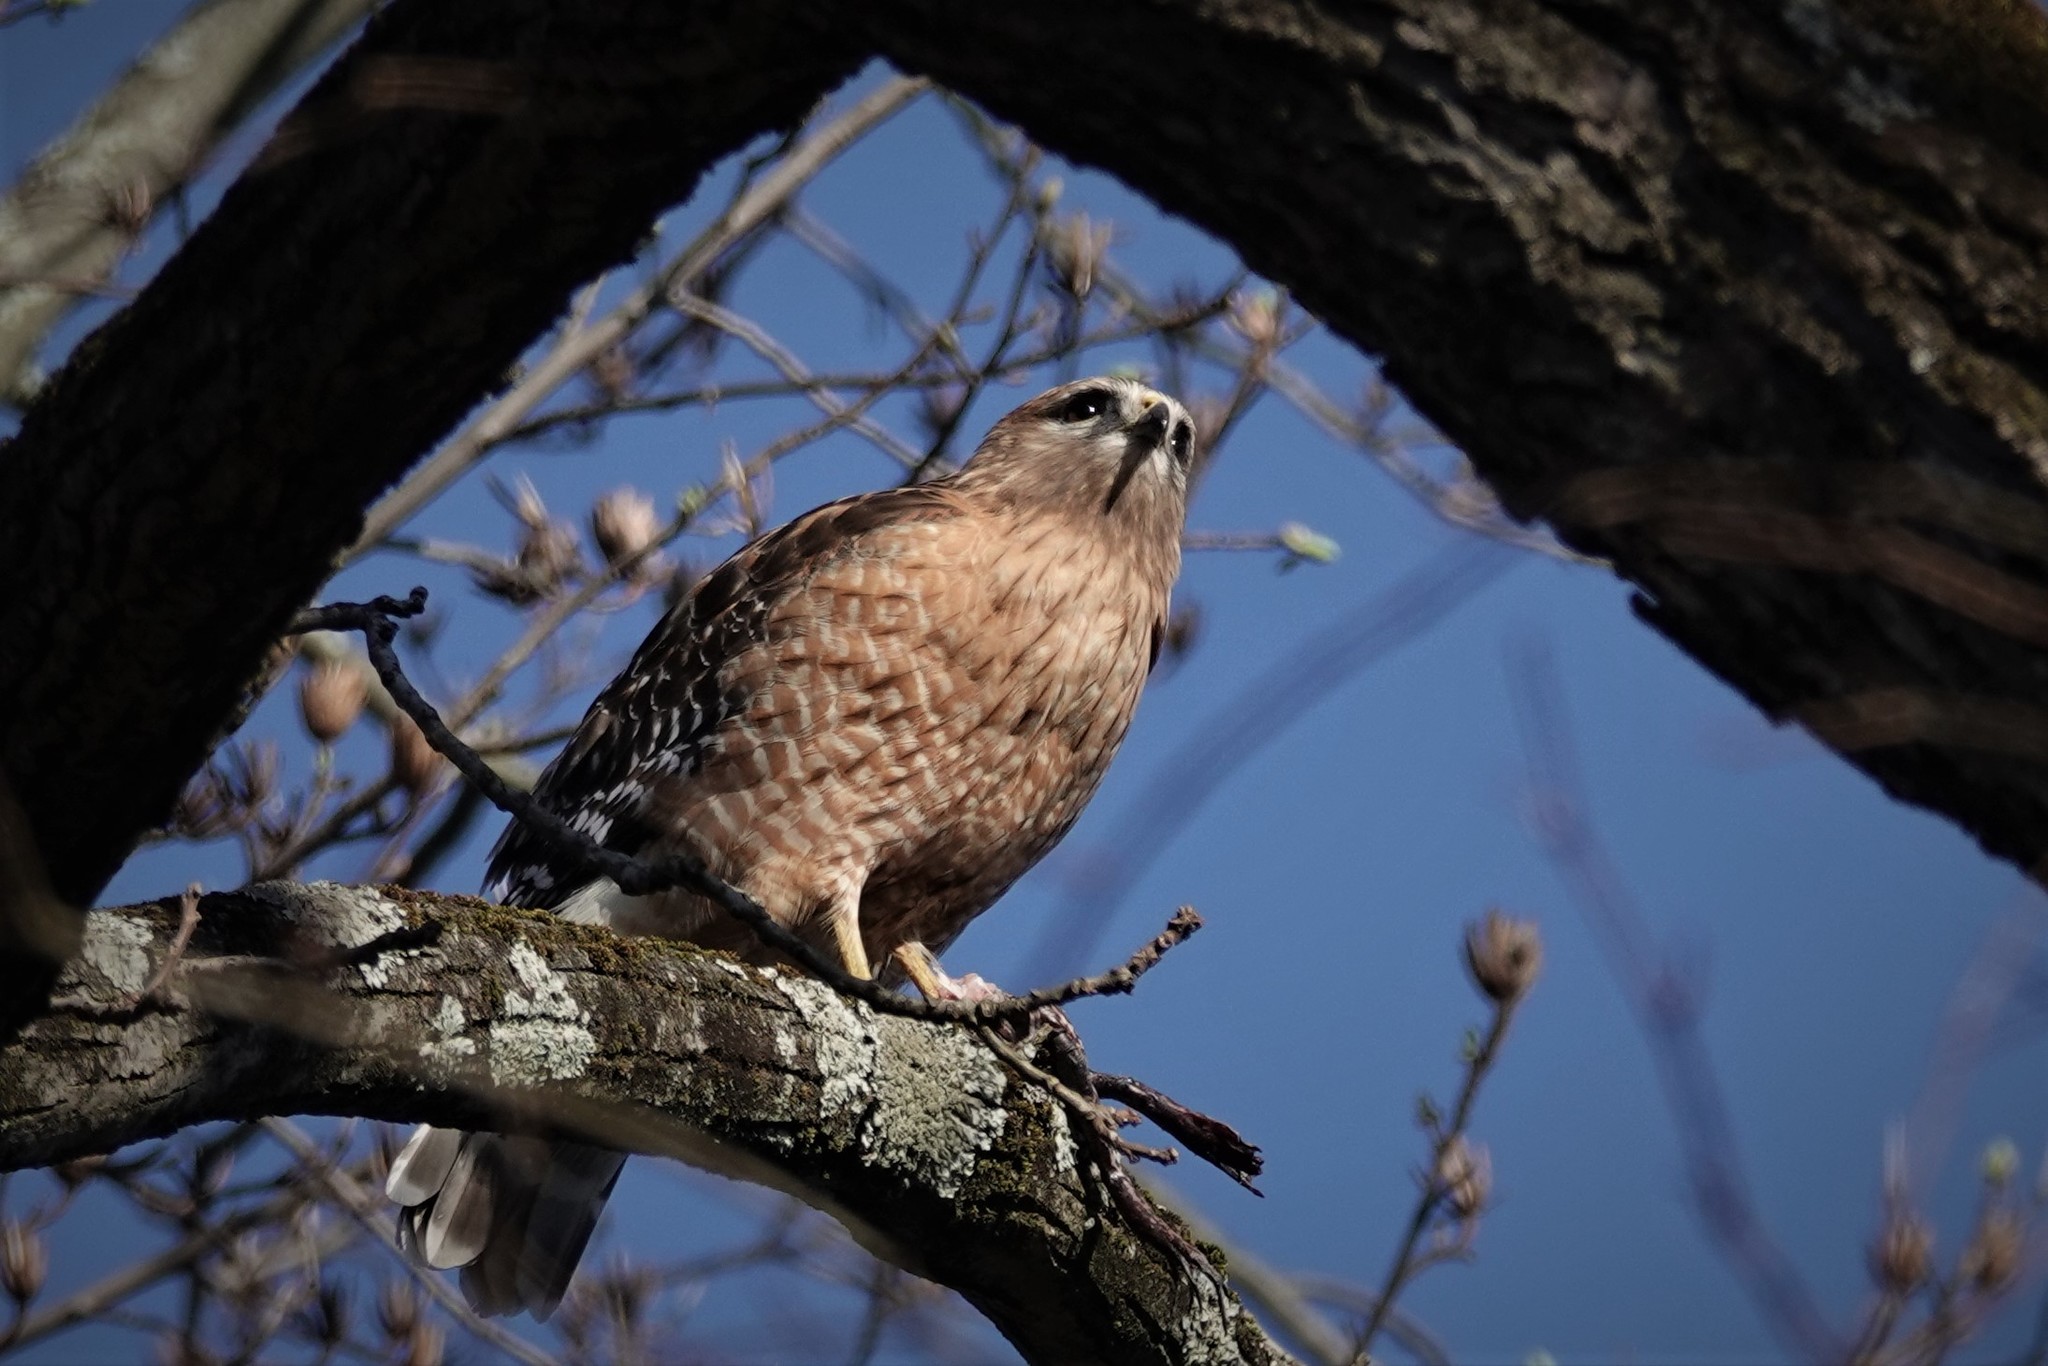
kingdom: Animalia
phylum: Chordata
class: Aves
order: Accipitriformes
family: Accipitridae
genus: Buteo
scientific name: Buteo lineatus
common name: Red-shouldered hawk
